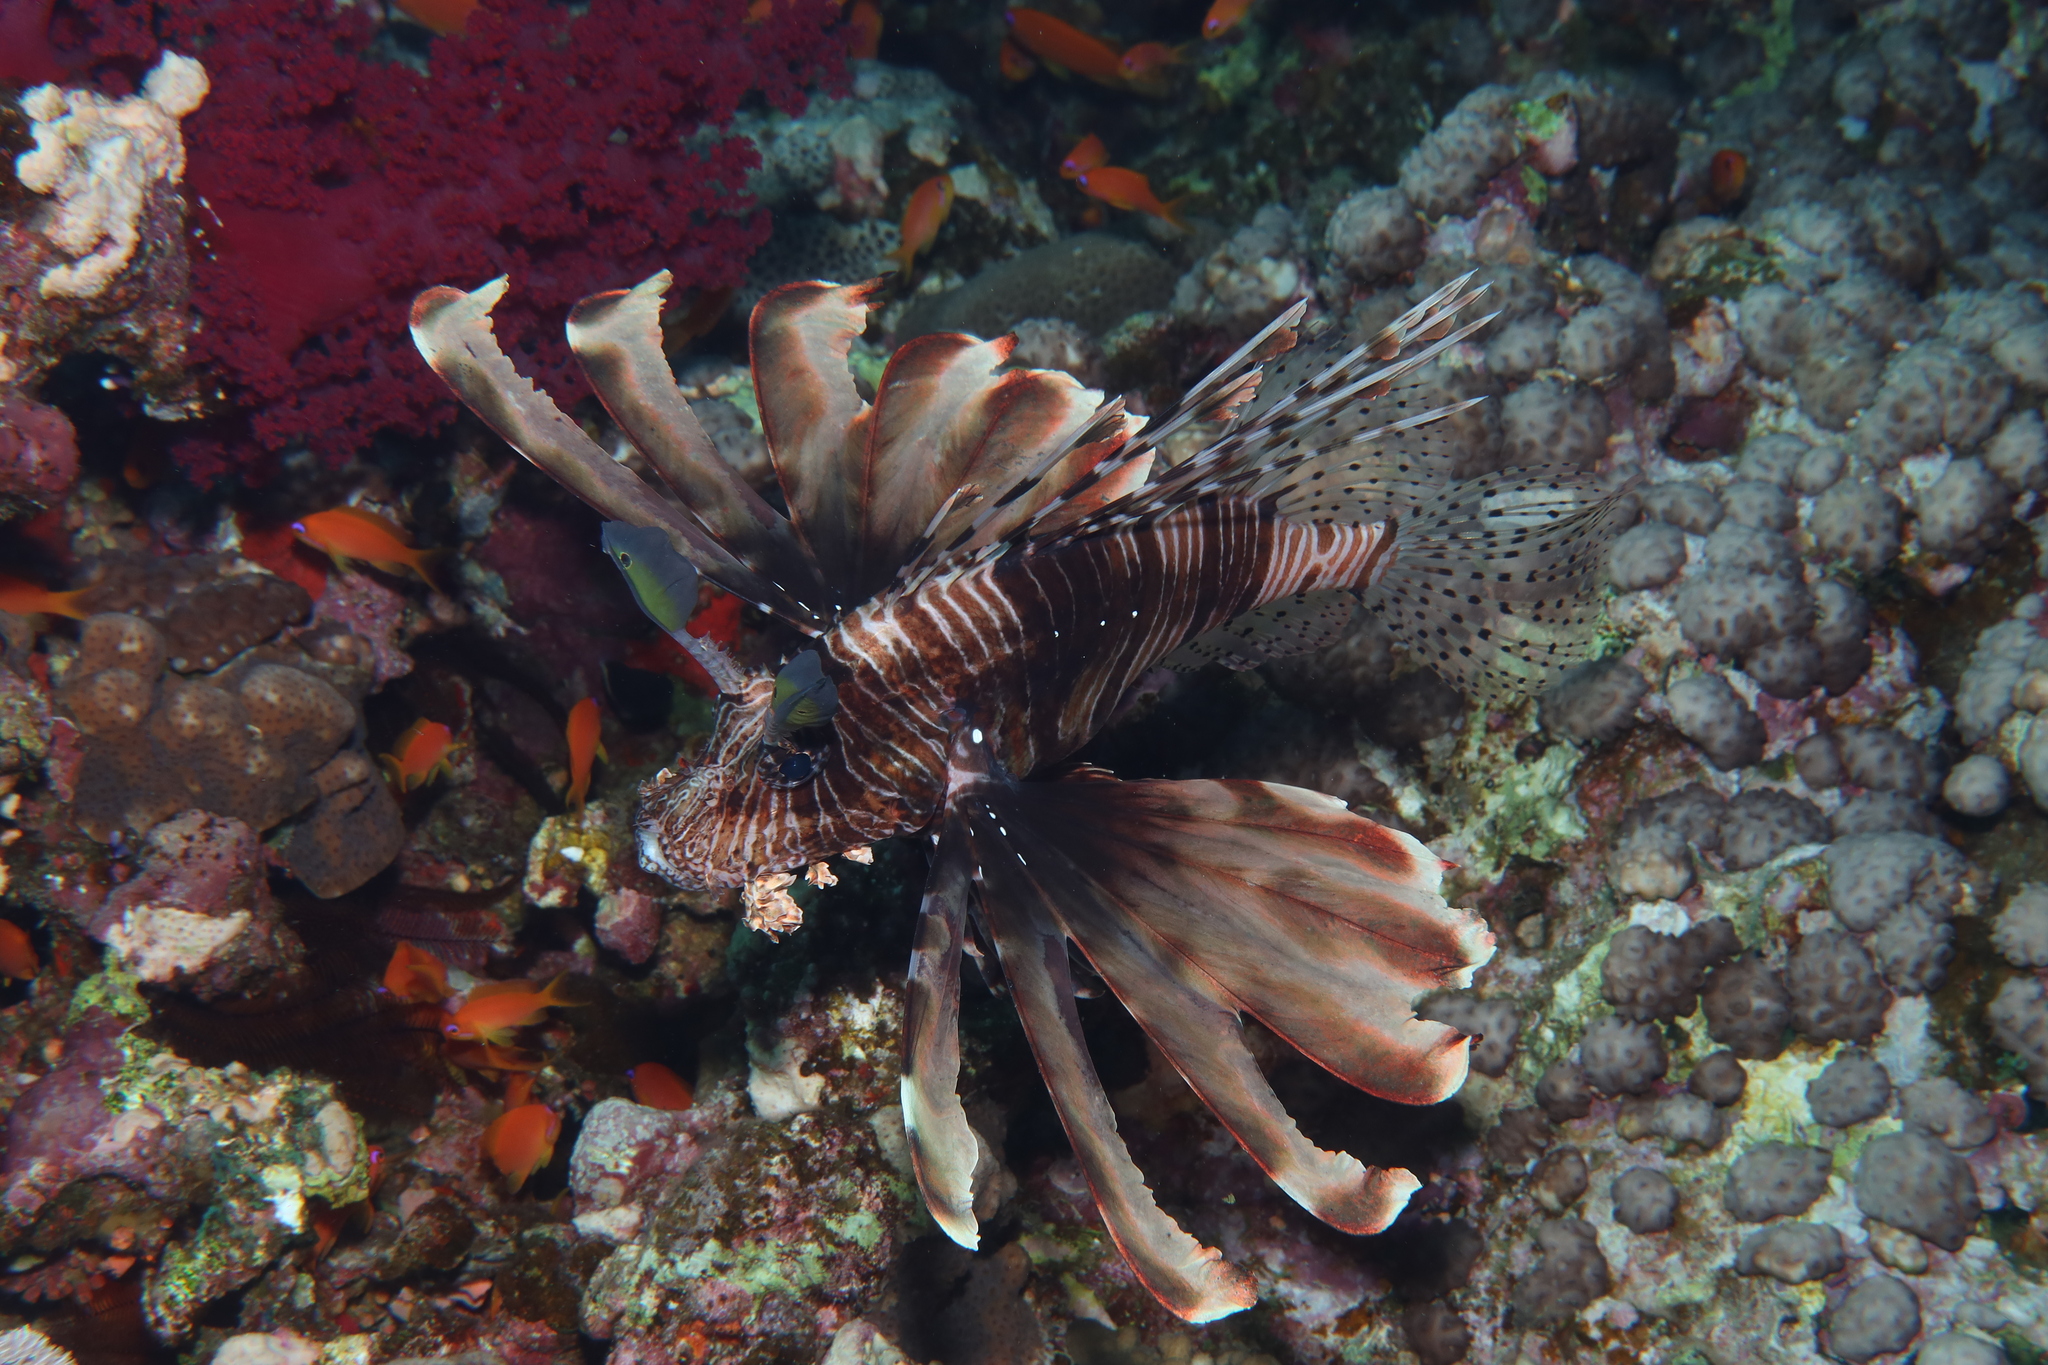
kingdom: Animalia
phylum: Chordata
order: Scorpaeniformes
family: Scorpaenidae
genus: Pterois
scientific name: Pterois miles
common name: Devil firefish
